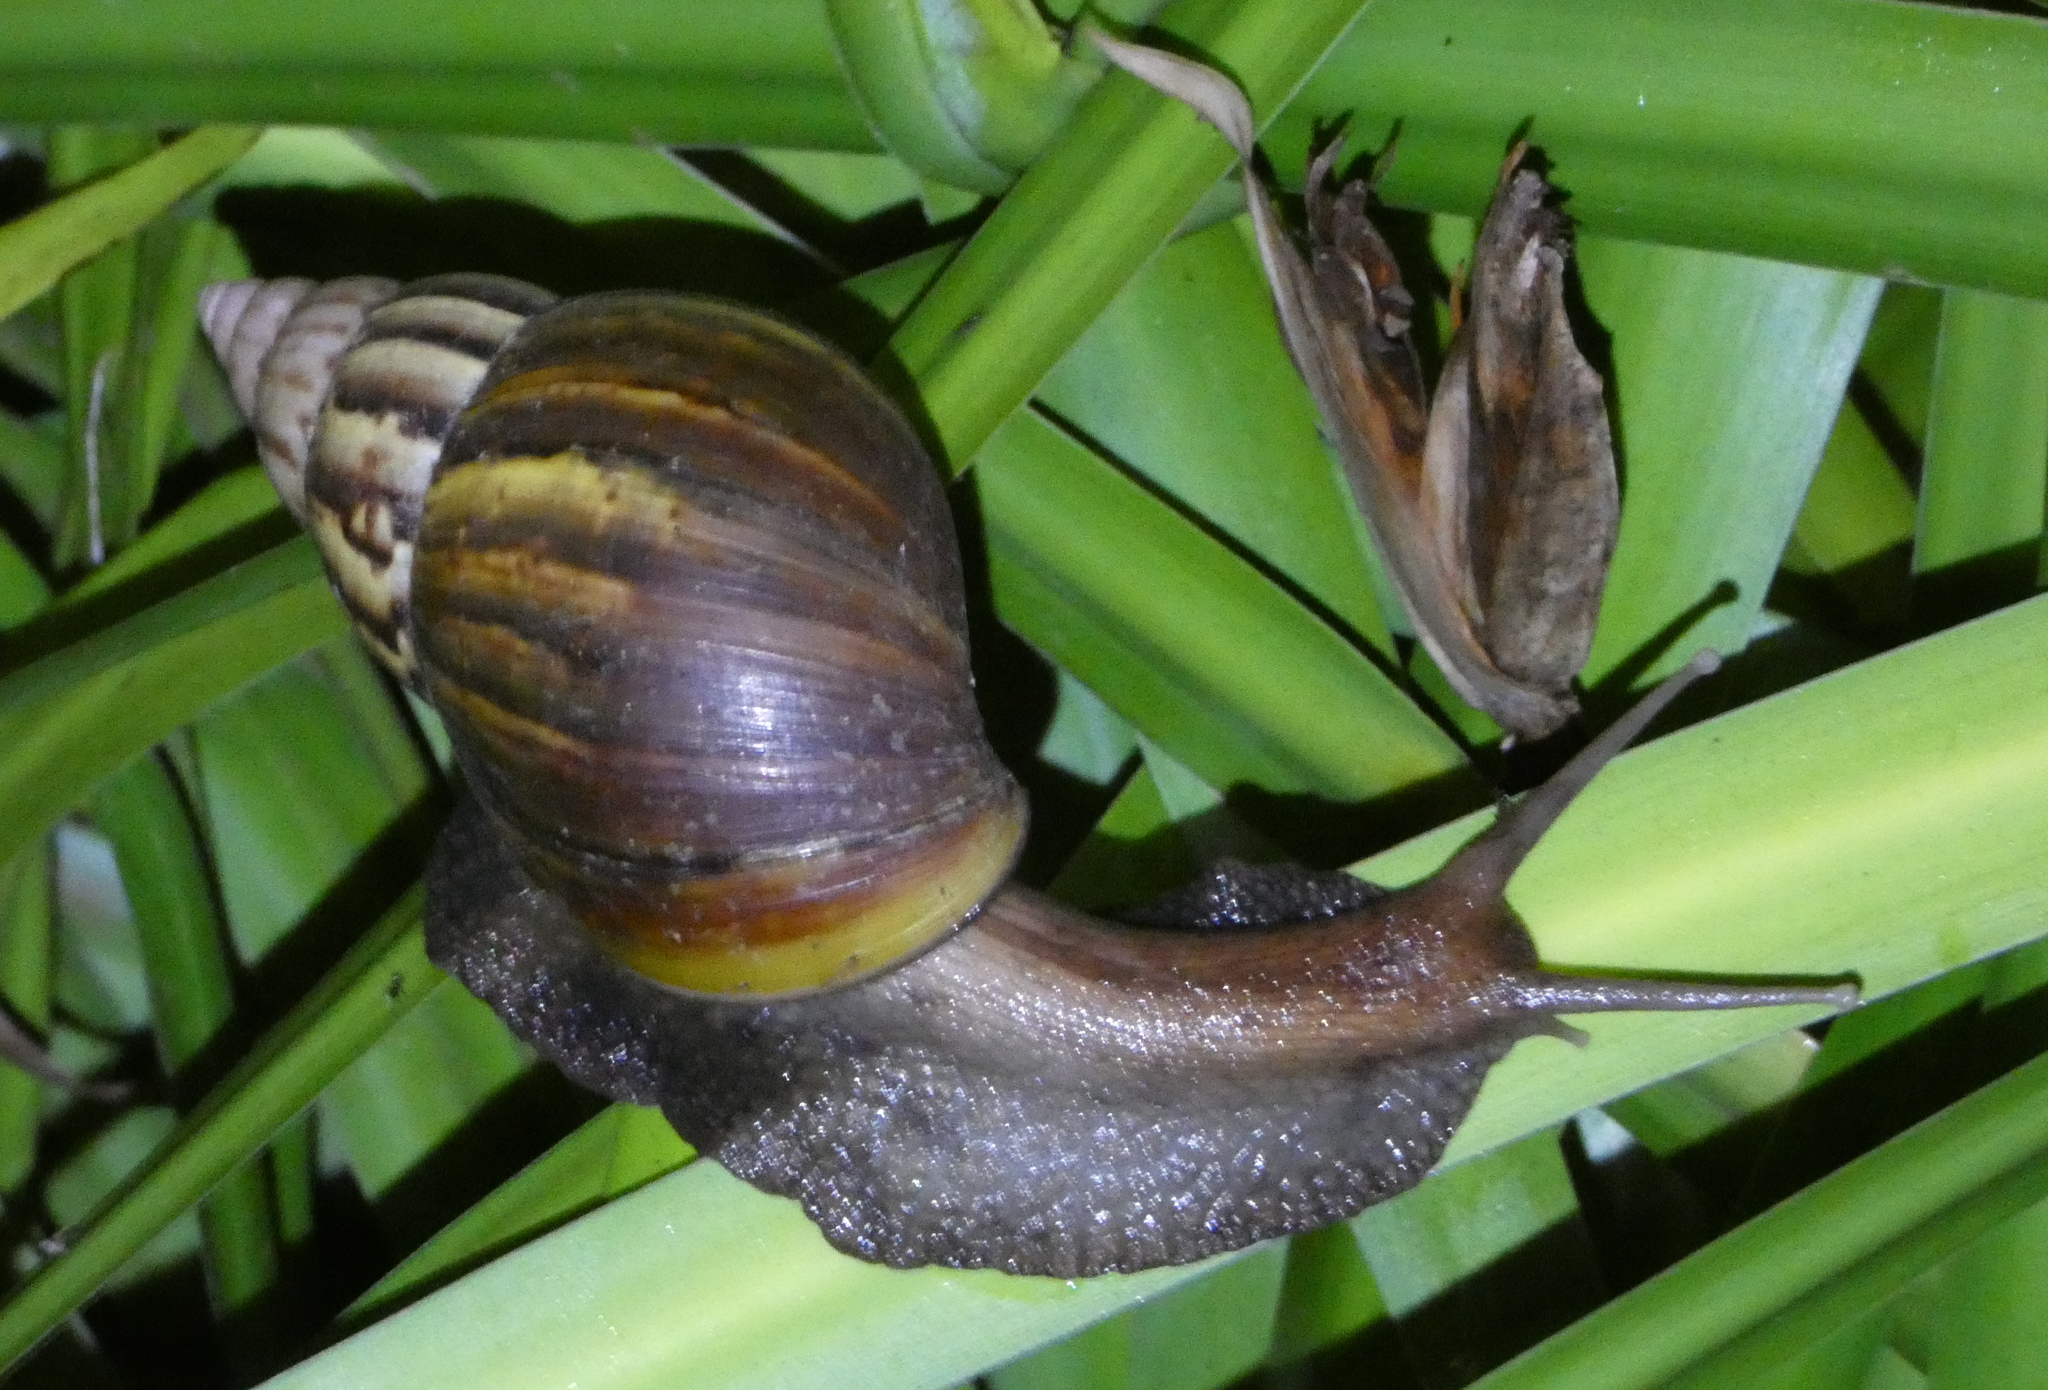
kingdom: Animalia
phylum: Mollusca
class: Gastropoda
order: Stylommatophora
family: Achatinidae
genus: Lissachatina
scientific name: Lissachatina fulica
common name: Giant african snail
